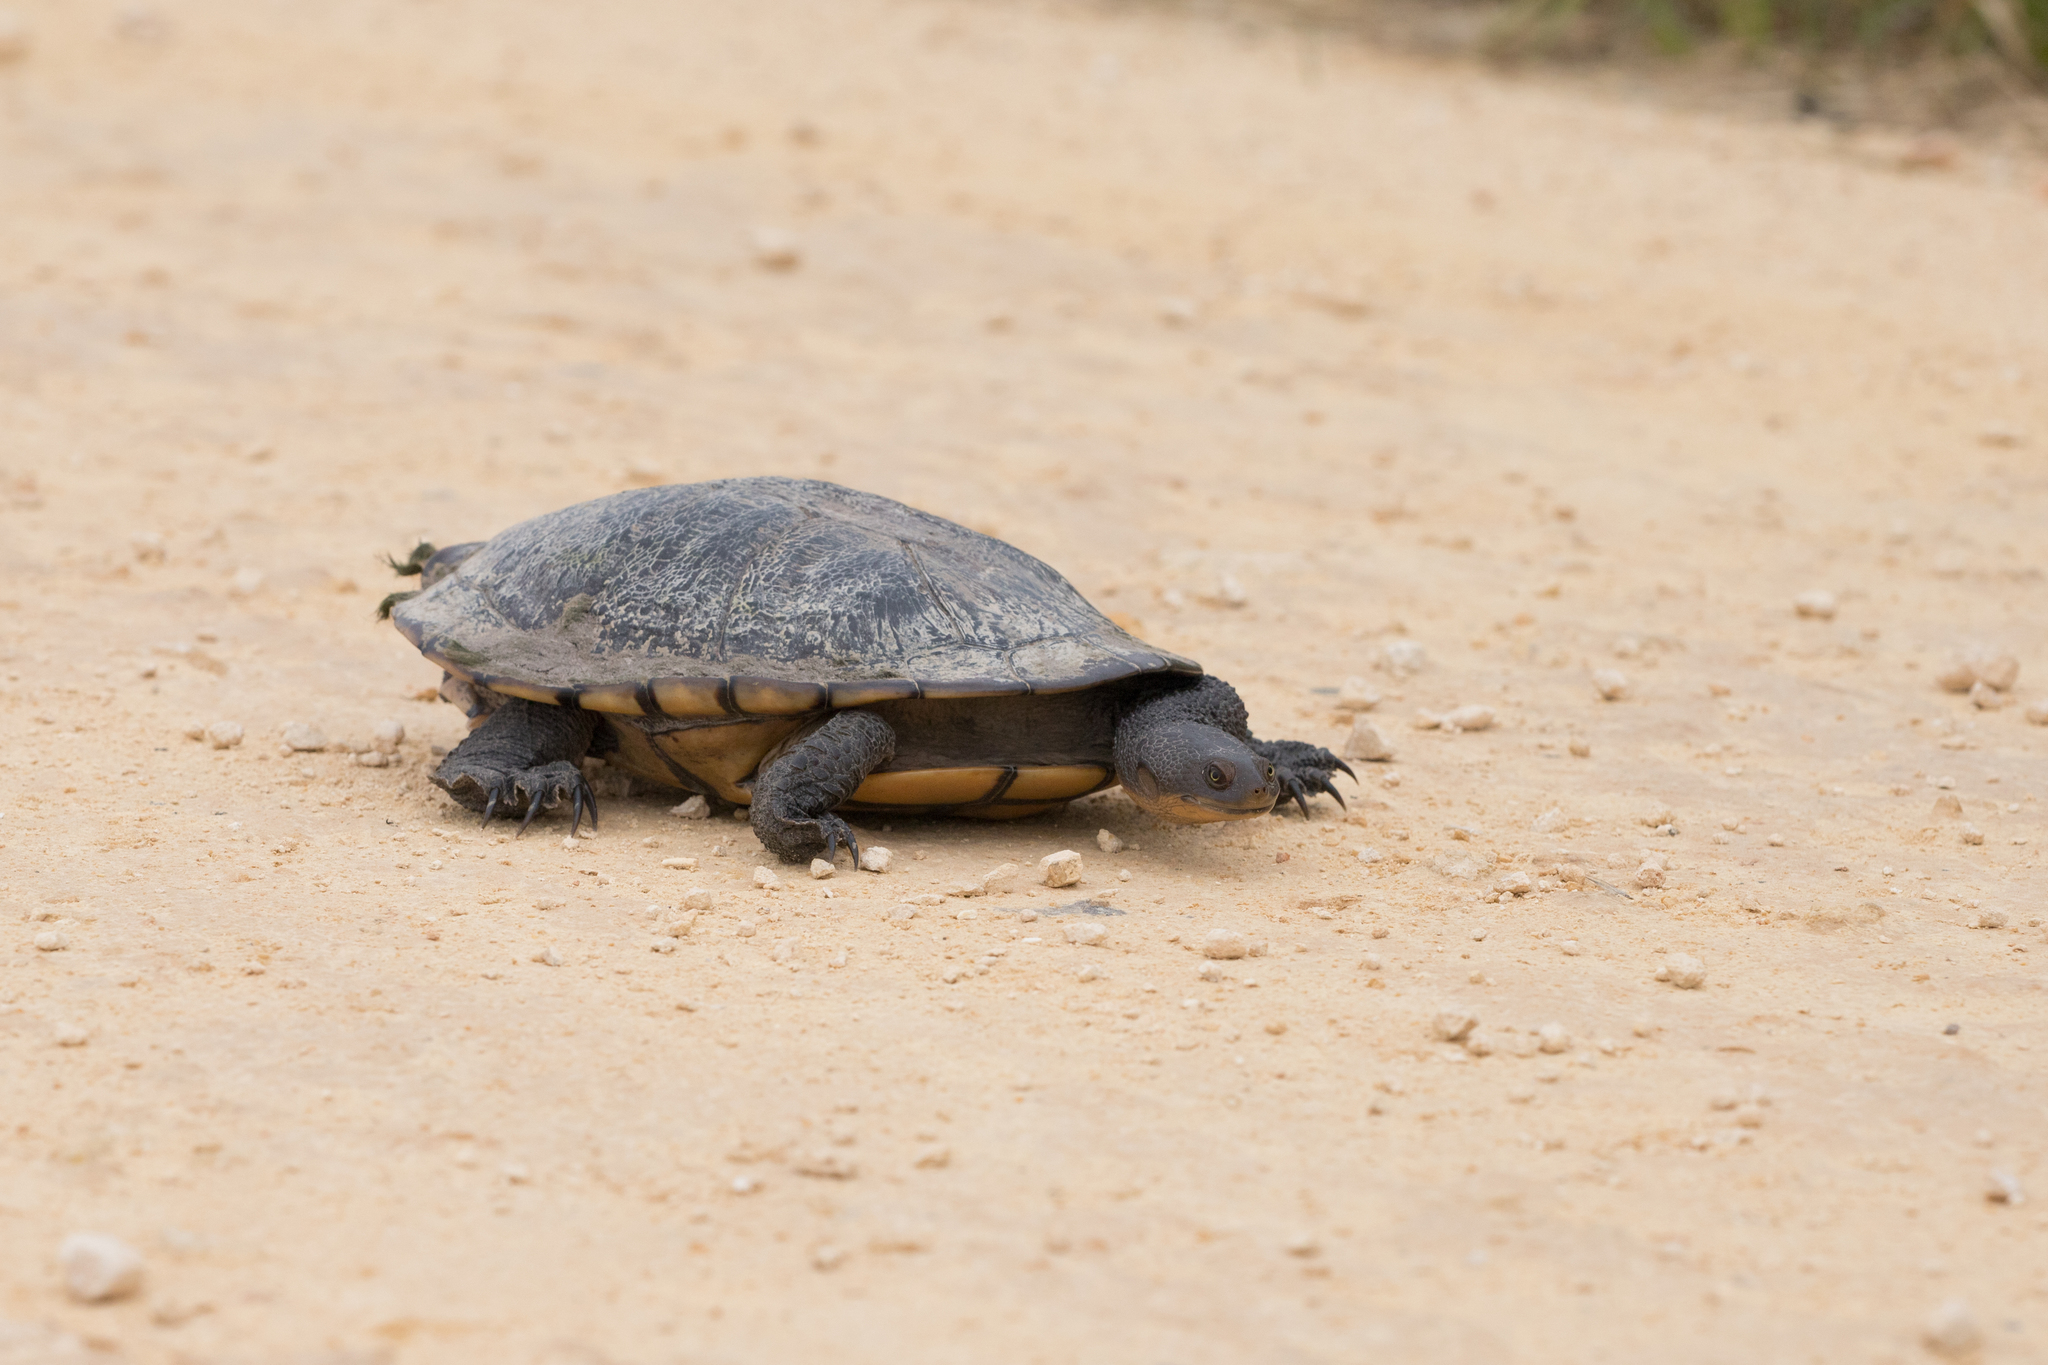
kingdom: Animalia
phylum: Chordata
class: Testudines
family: Chelidae
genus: Chelodina
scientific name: Chelodina longicollis
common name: Eastern snake-necked turtle
